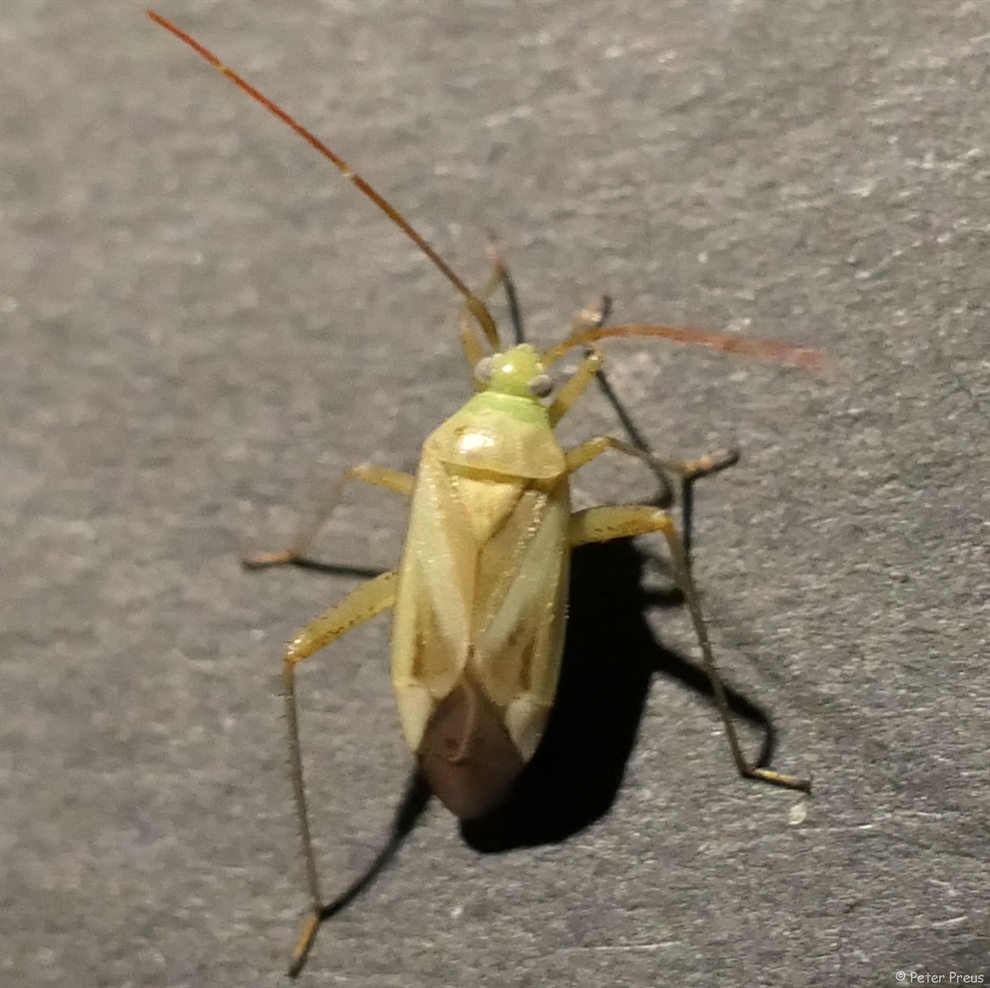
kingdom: Animalia
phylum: Arthropoda
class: Insecta
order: Hemiptera
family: Miridae
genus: Adelphocoris
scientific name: Adelphocoris lineolatus
